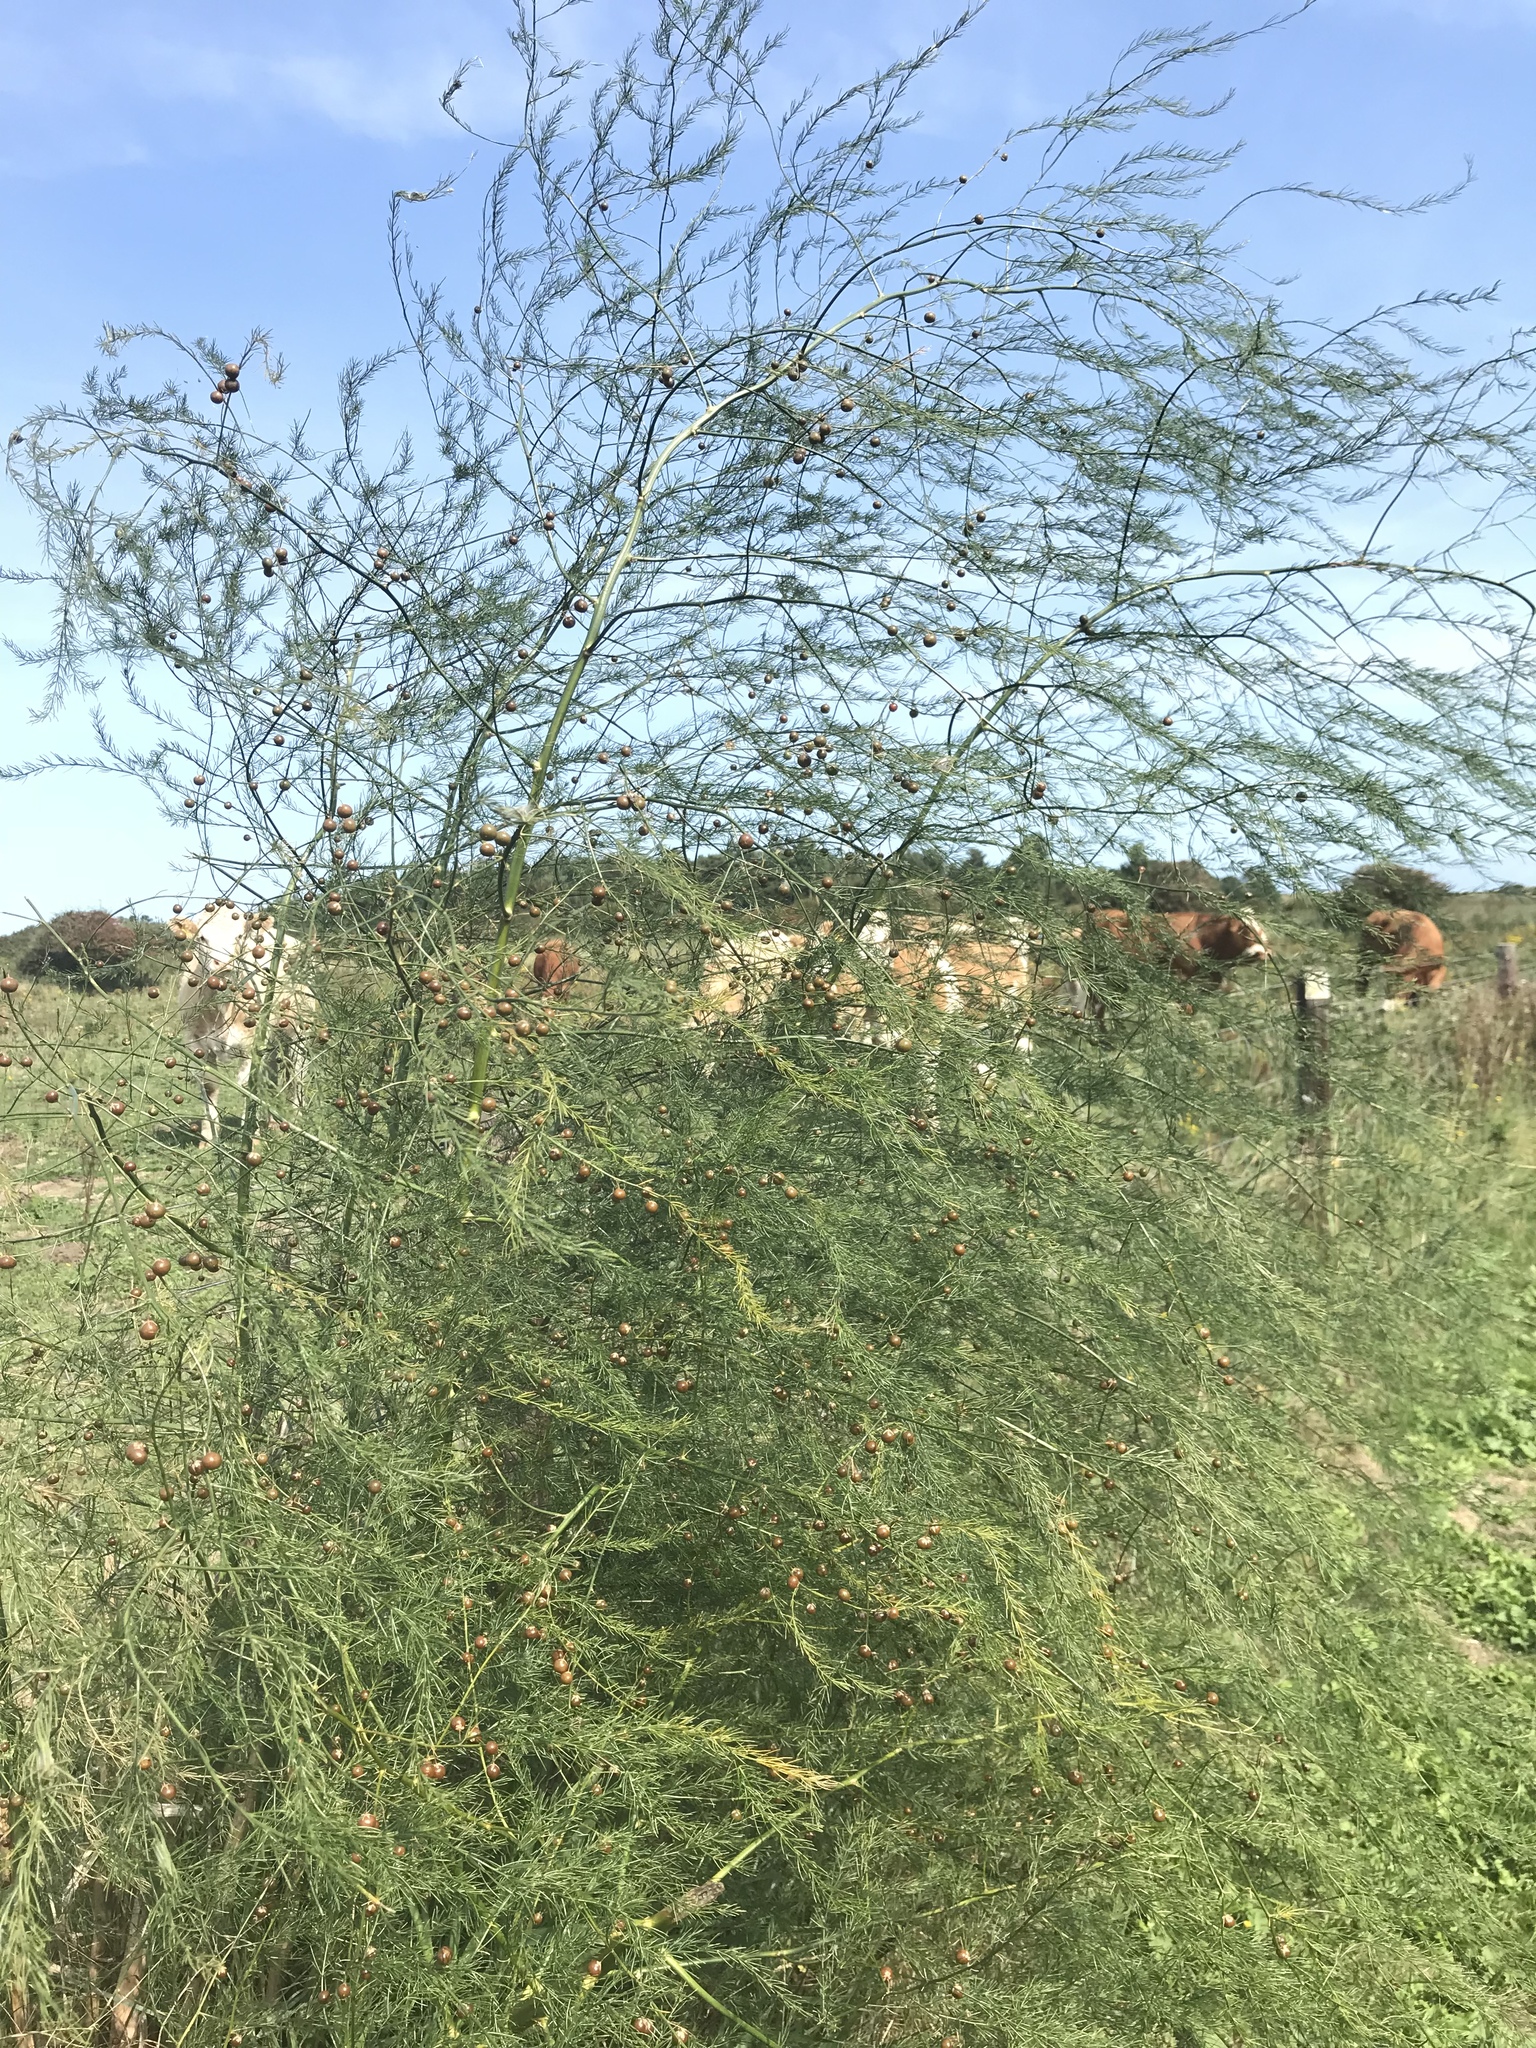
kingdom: Plantae
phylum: Tracheophyta
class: Liliopsida
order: Asparagales
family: Asparagaceae
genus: Asparagus
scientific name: Asparagus officinalis
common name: Garden asparagus
